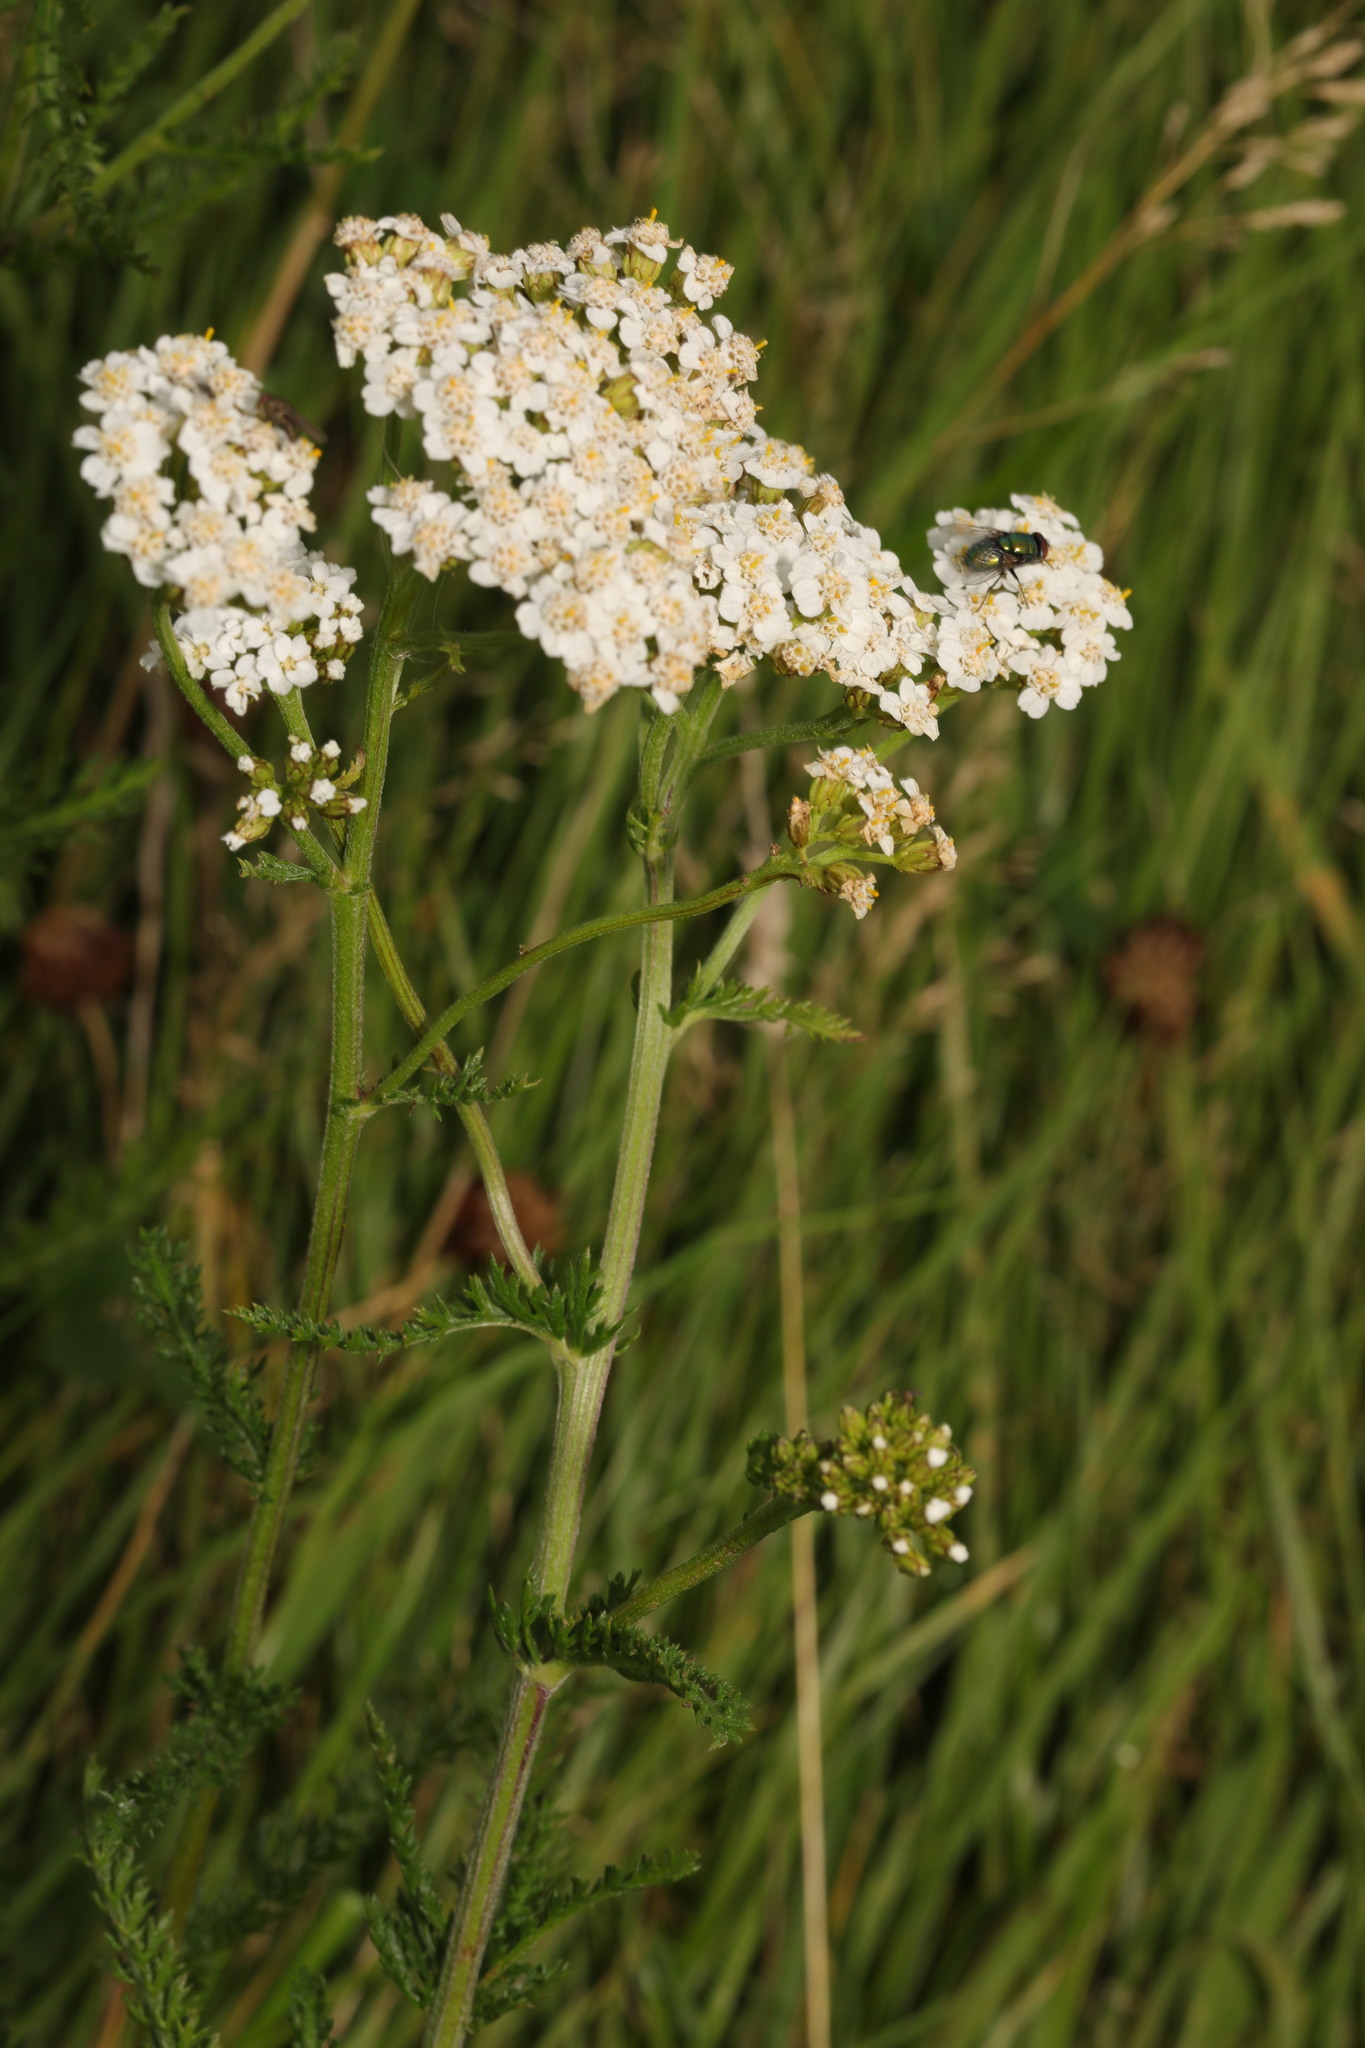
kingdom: Plantae
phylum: Tracheophyta
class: Magnoliopsida
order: Asterales
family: Asteraceae
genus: Achillea
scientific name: Achillea millefolium
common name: Yarrow
